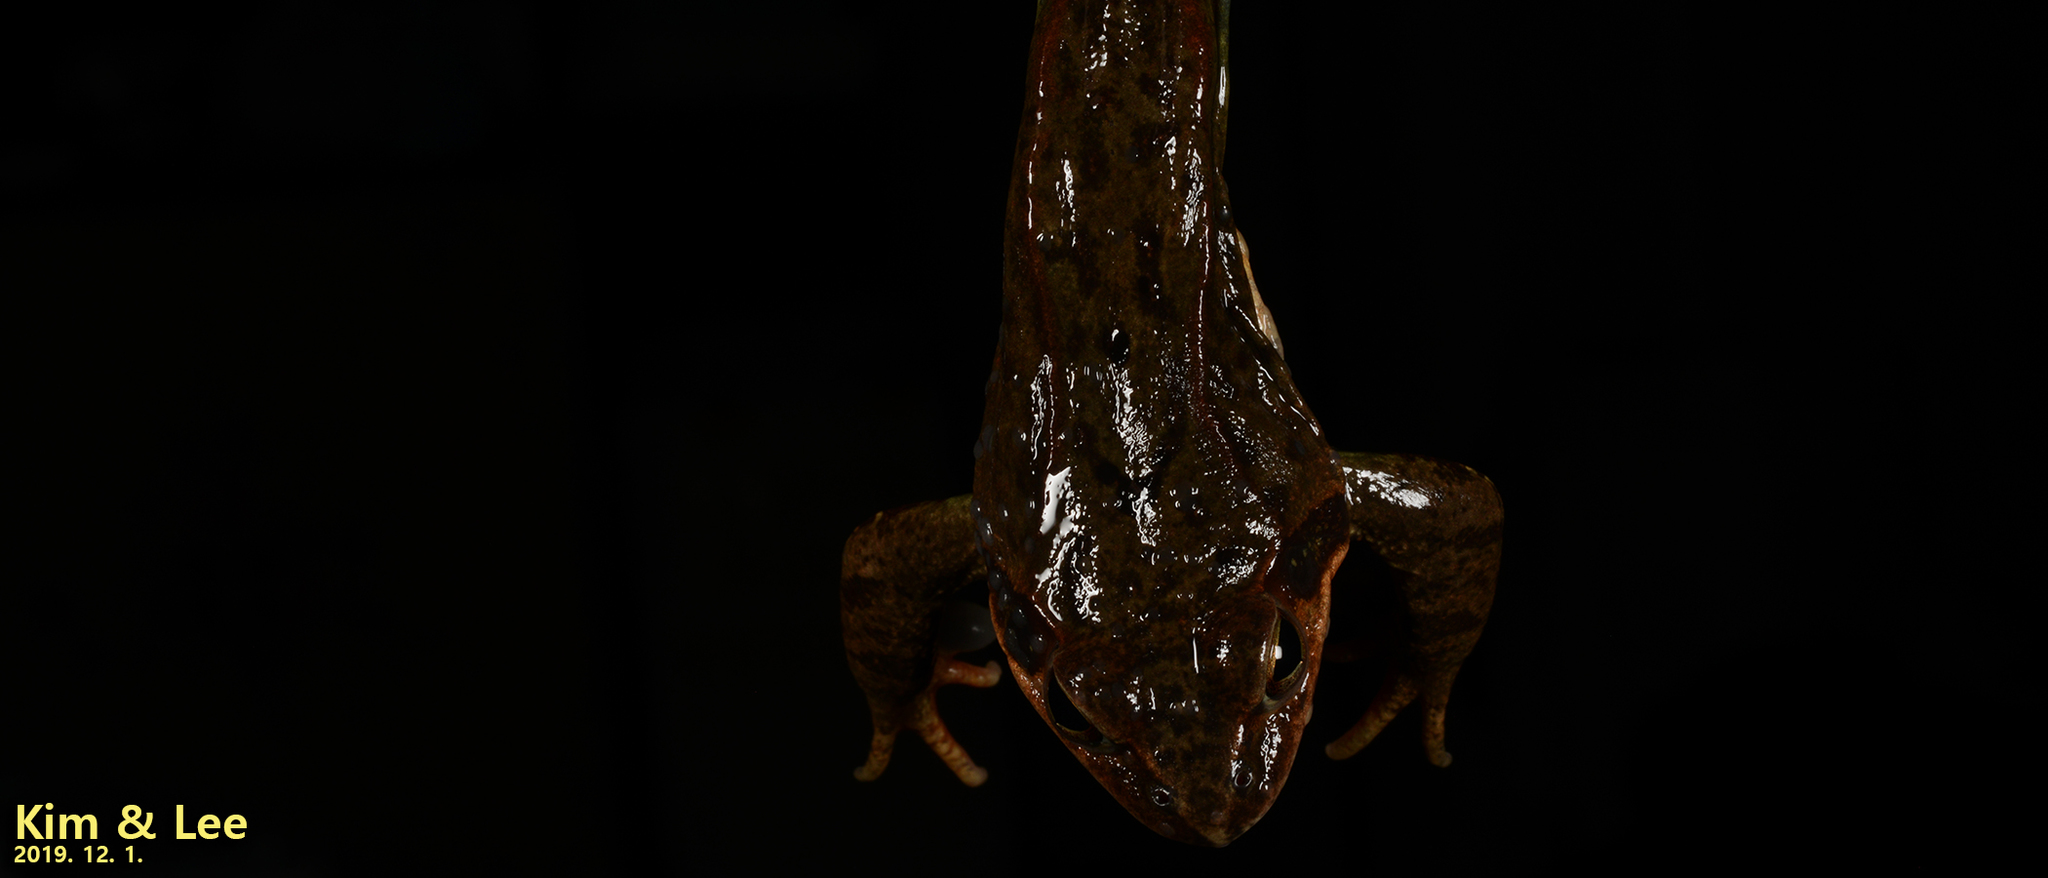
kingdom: Animalia
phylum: Chordata
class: Amphibia
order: Anura
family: Ranidae
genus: Rana
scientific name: Rana dybowskii
